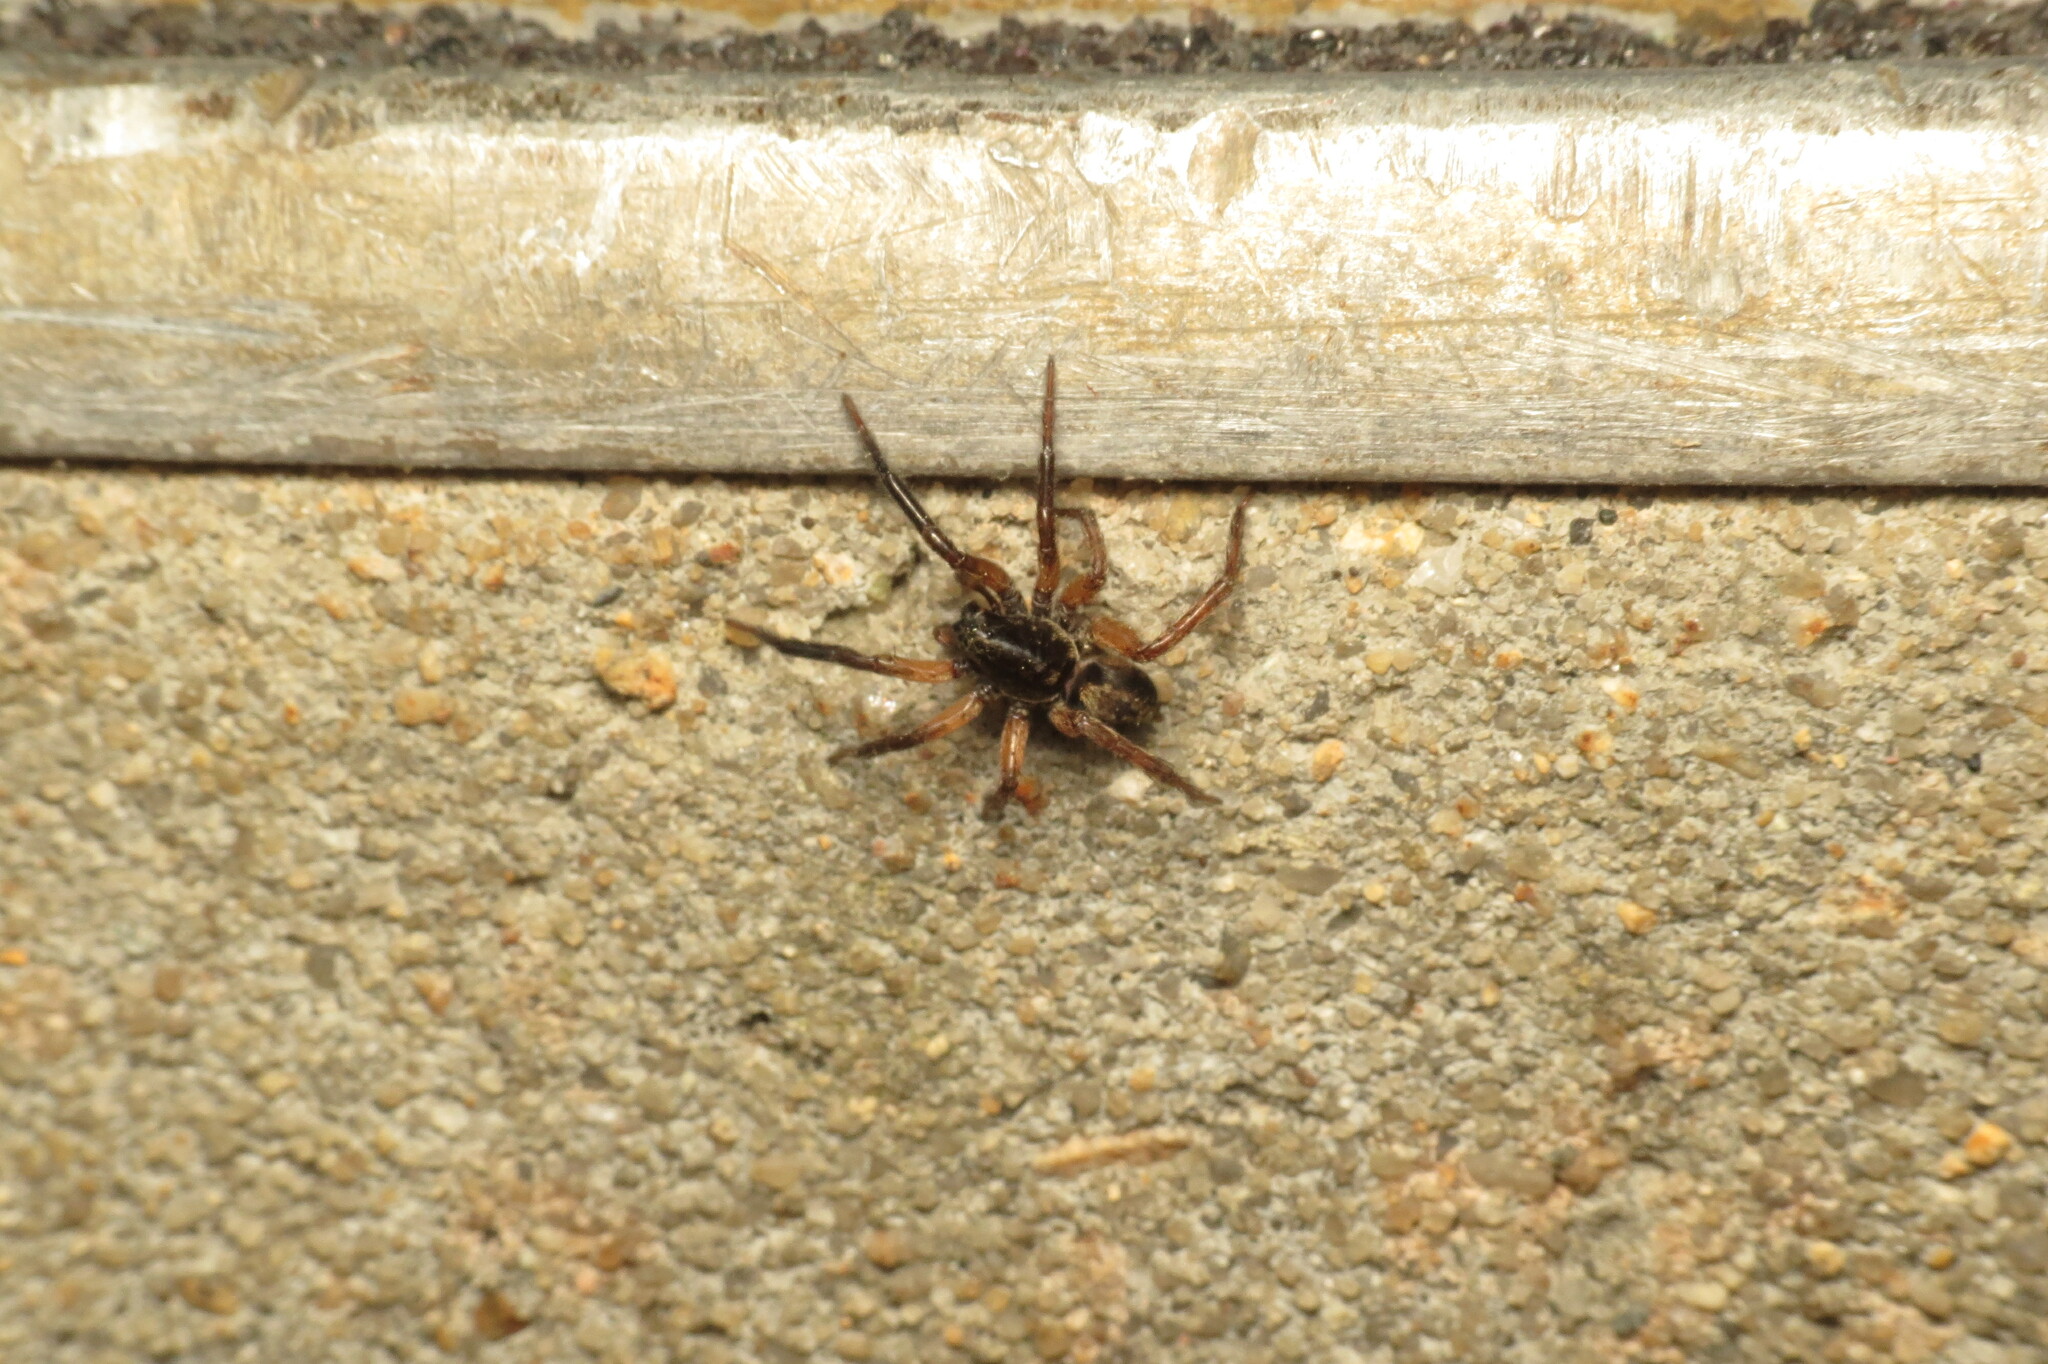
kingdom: Animalia
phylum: Arthropoda
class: Arachnida
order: Araneae
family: Lycosidae
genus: Trochosa
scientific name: Trochosa sepulchralis
